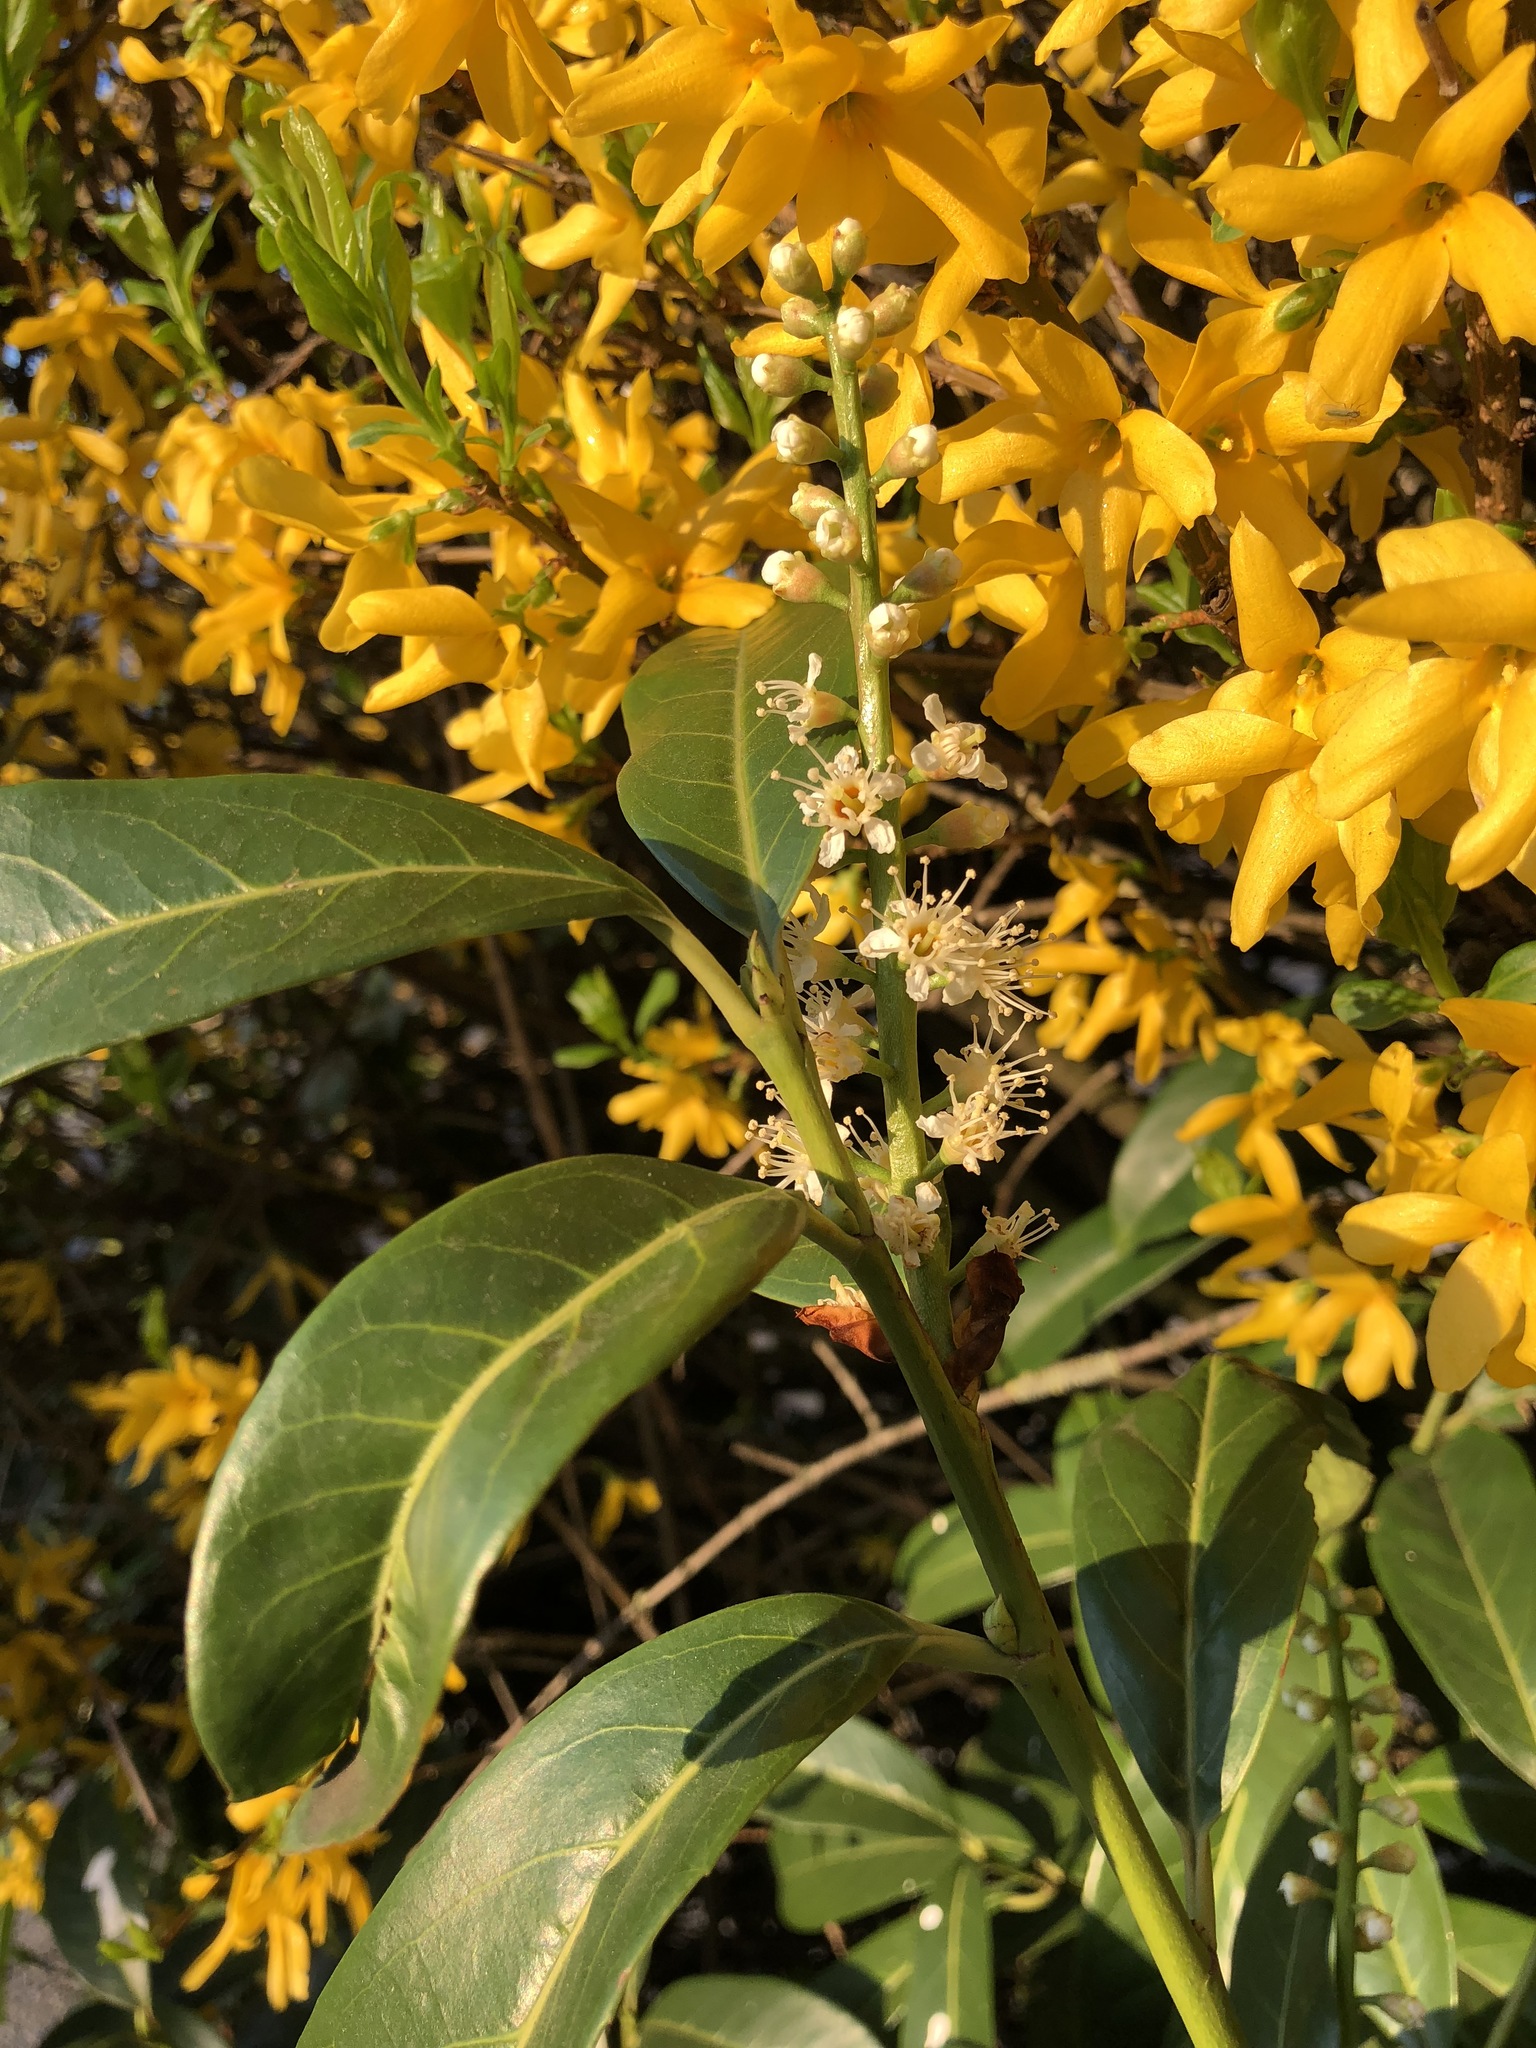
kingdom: Plantae
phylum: Tracheophyta
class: Magnoliopsida
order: Rosales
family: Rosaceae
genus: Prunus
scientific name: Prunus laurocerasus
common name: Cherry laurel
